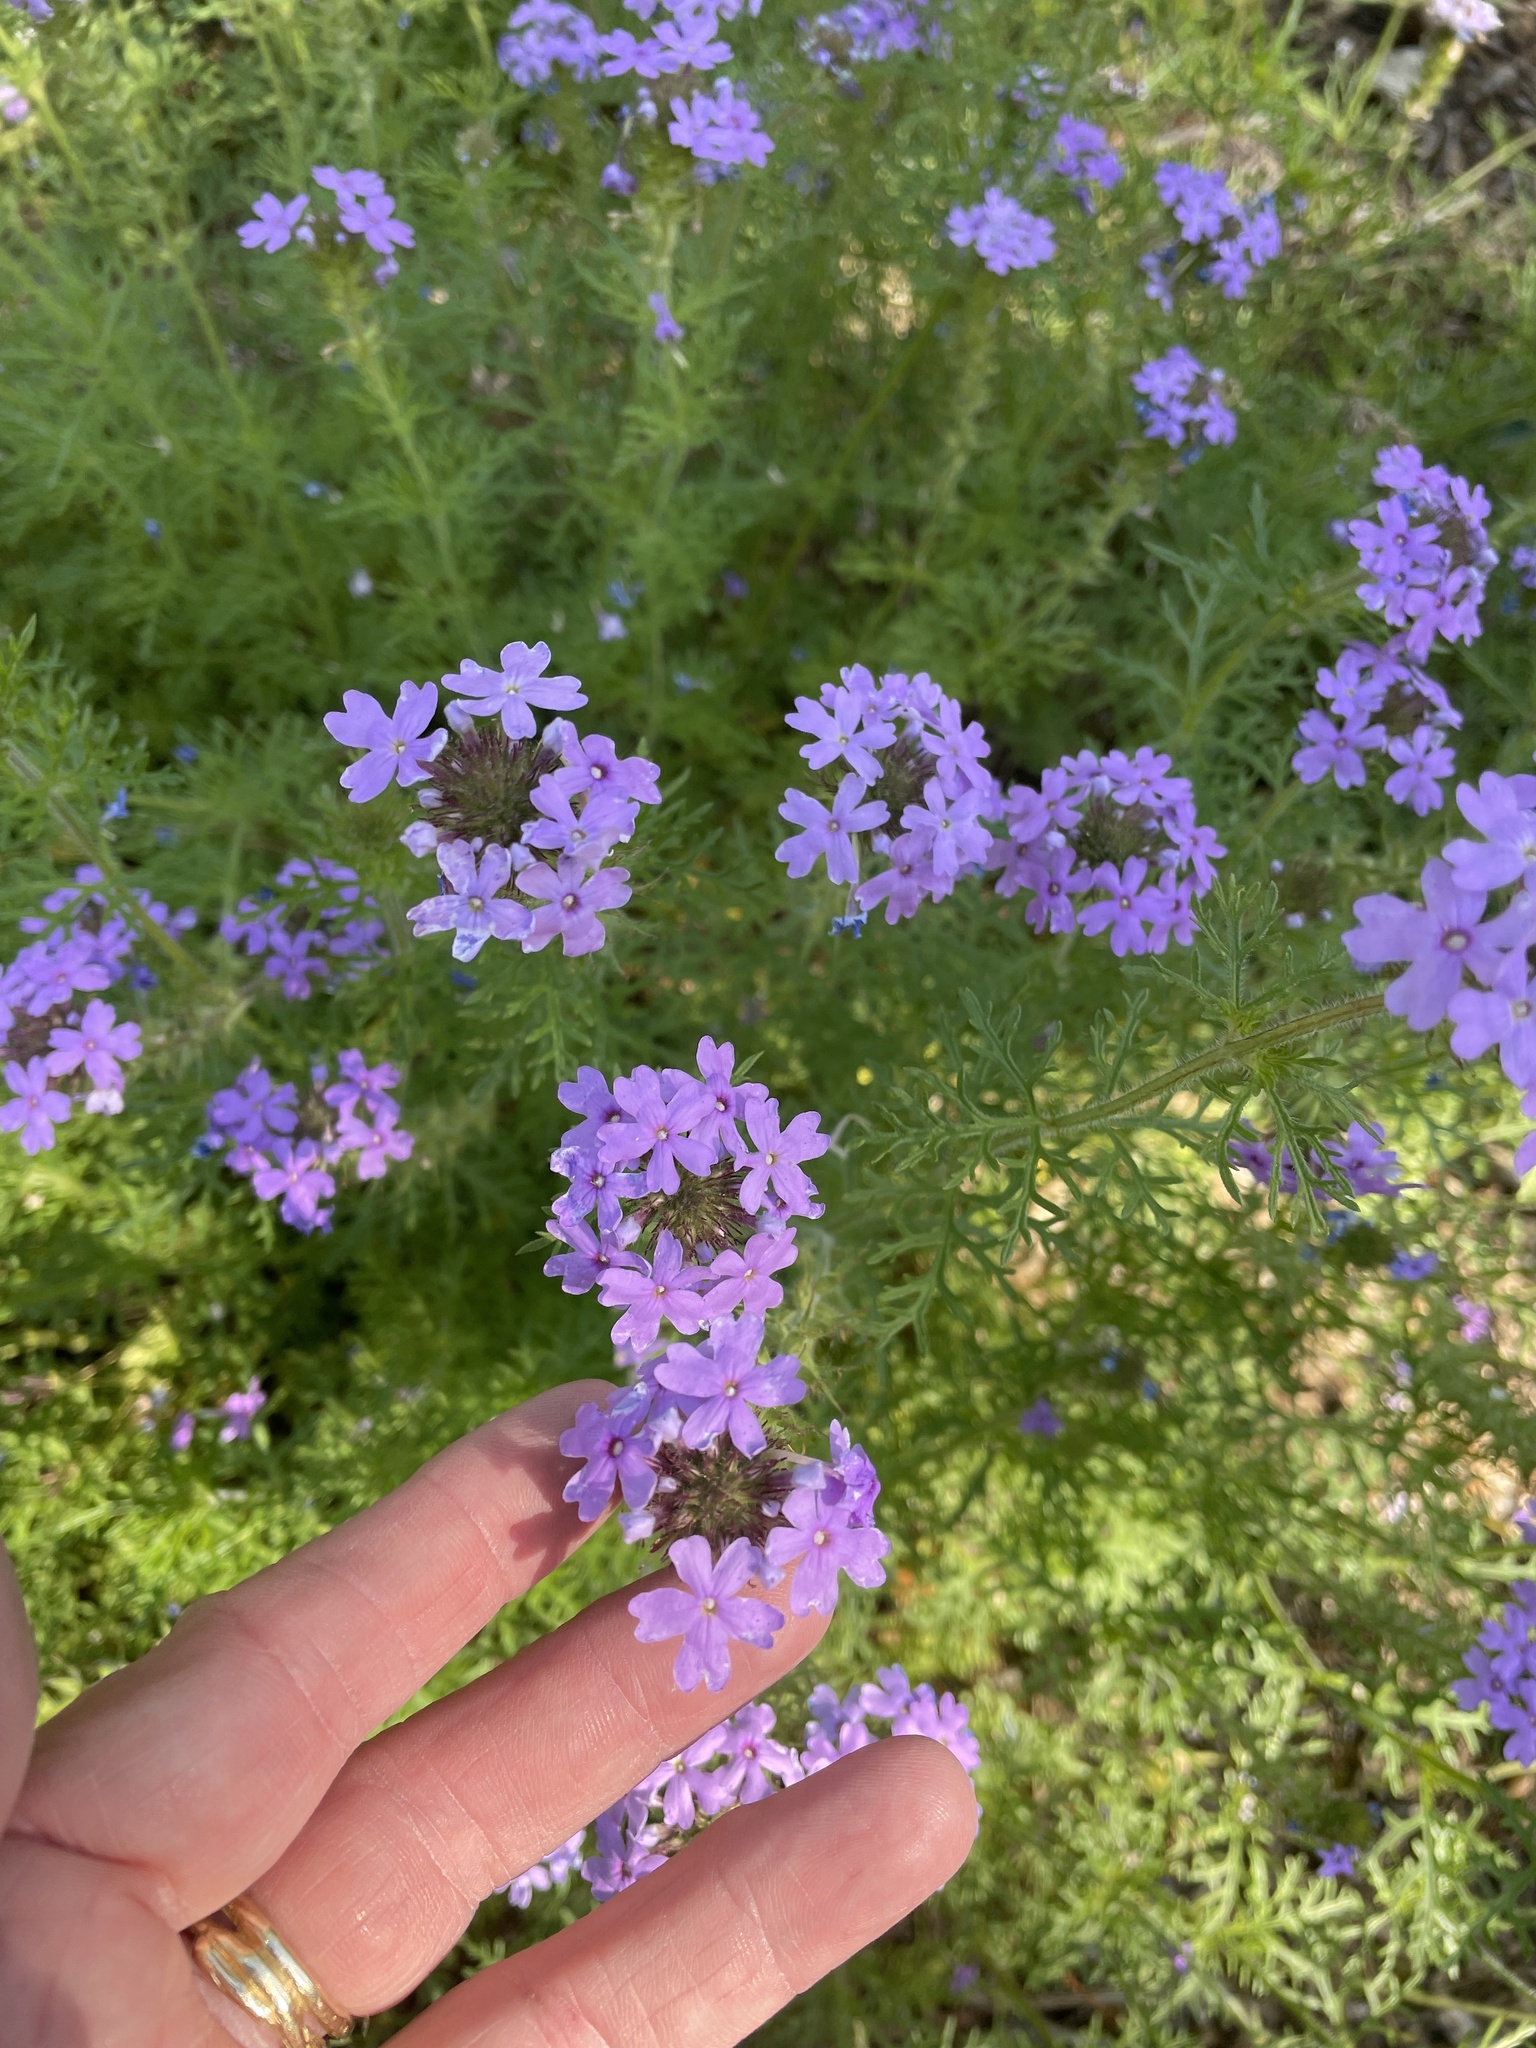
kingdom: Plantae
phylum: Tracheophyta
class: Magnoliopsida
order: Lamiales
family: Verbenaceae
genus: Verbena
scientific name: Verbena bipinnatifida
